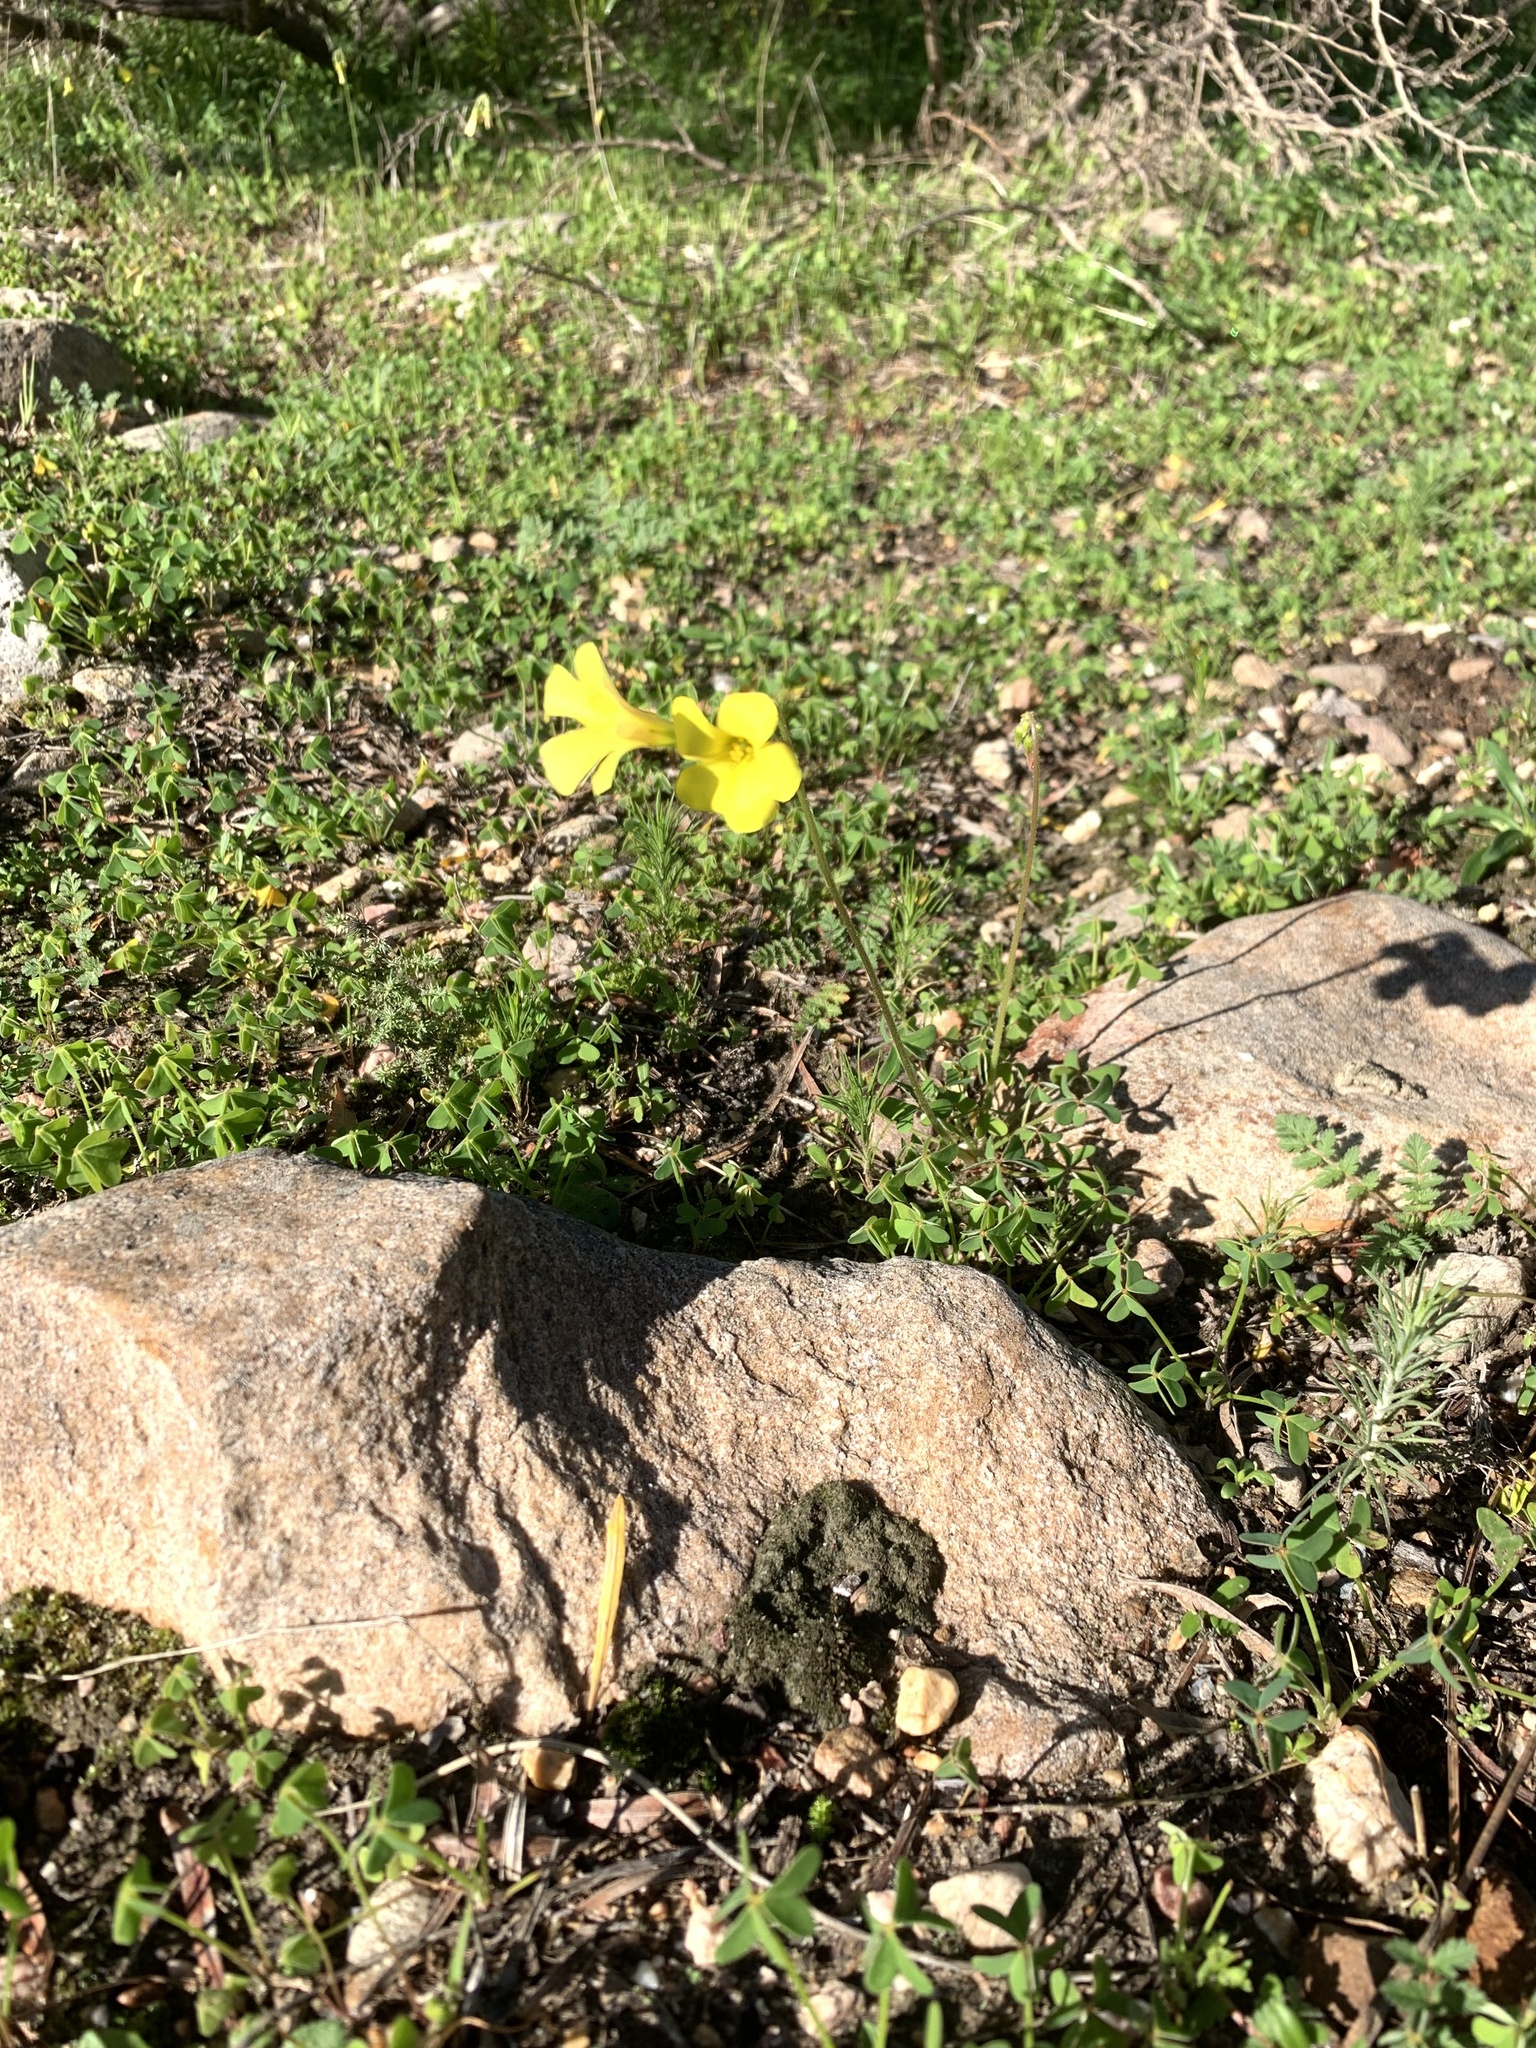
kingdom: Plantae
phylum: Tracheophyta
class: Magnoliopsida
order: Oxalidales
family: Oxalidaceae
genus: Oxalis
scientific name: Oxalis pes-caprae
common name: Bermuda-buttercup
